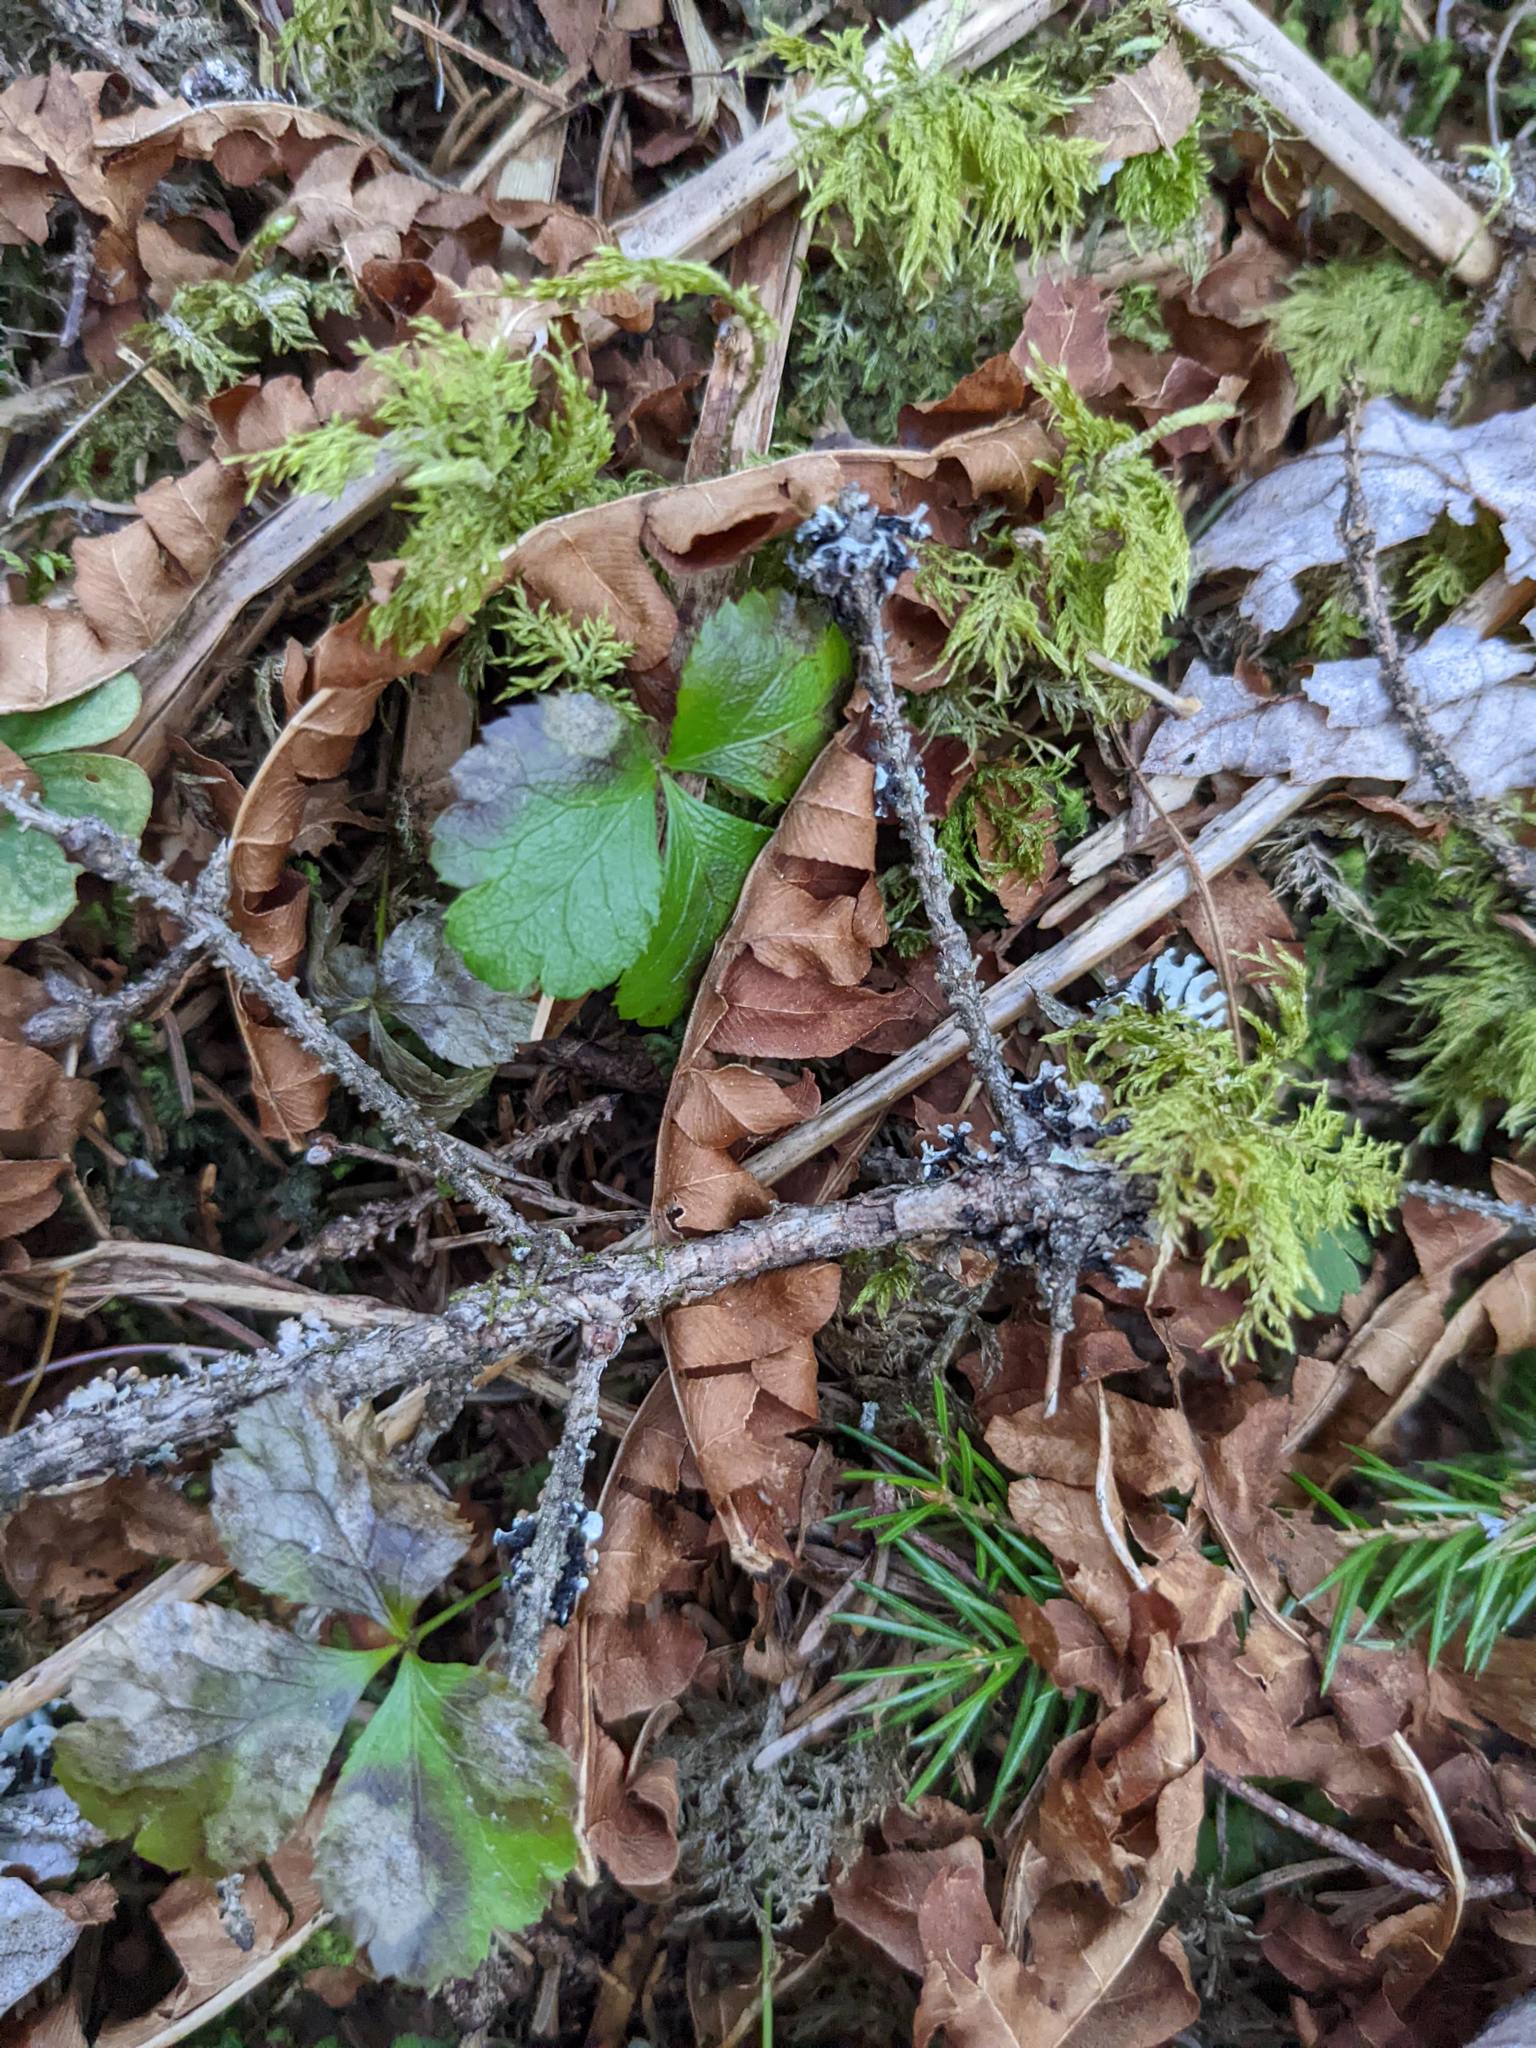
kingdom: Plantae
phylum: Tracheophyta
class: Magnoliopsida
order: Ranunculales
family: Ranunculaceae
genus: Coptis
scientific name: Coptis trifolia
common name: Canker-root
